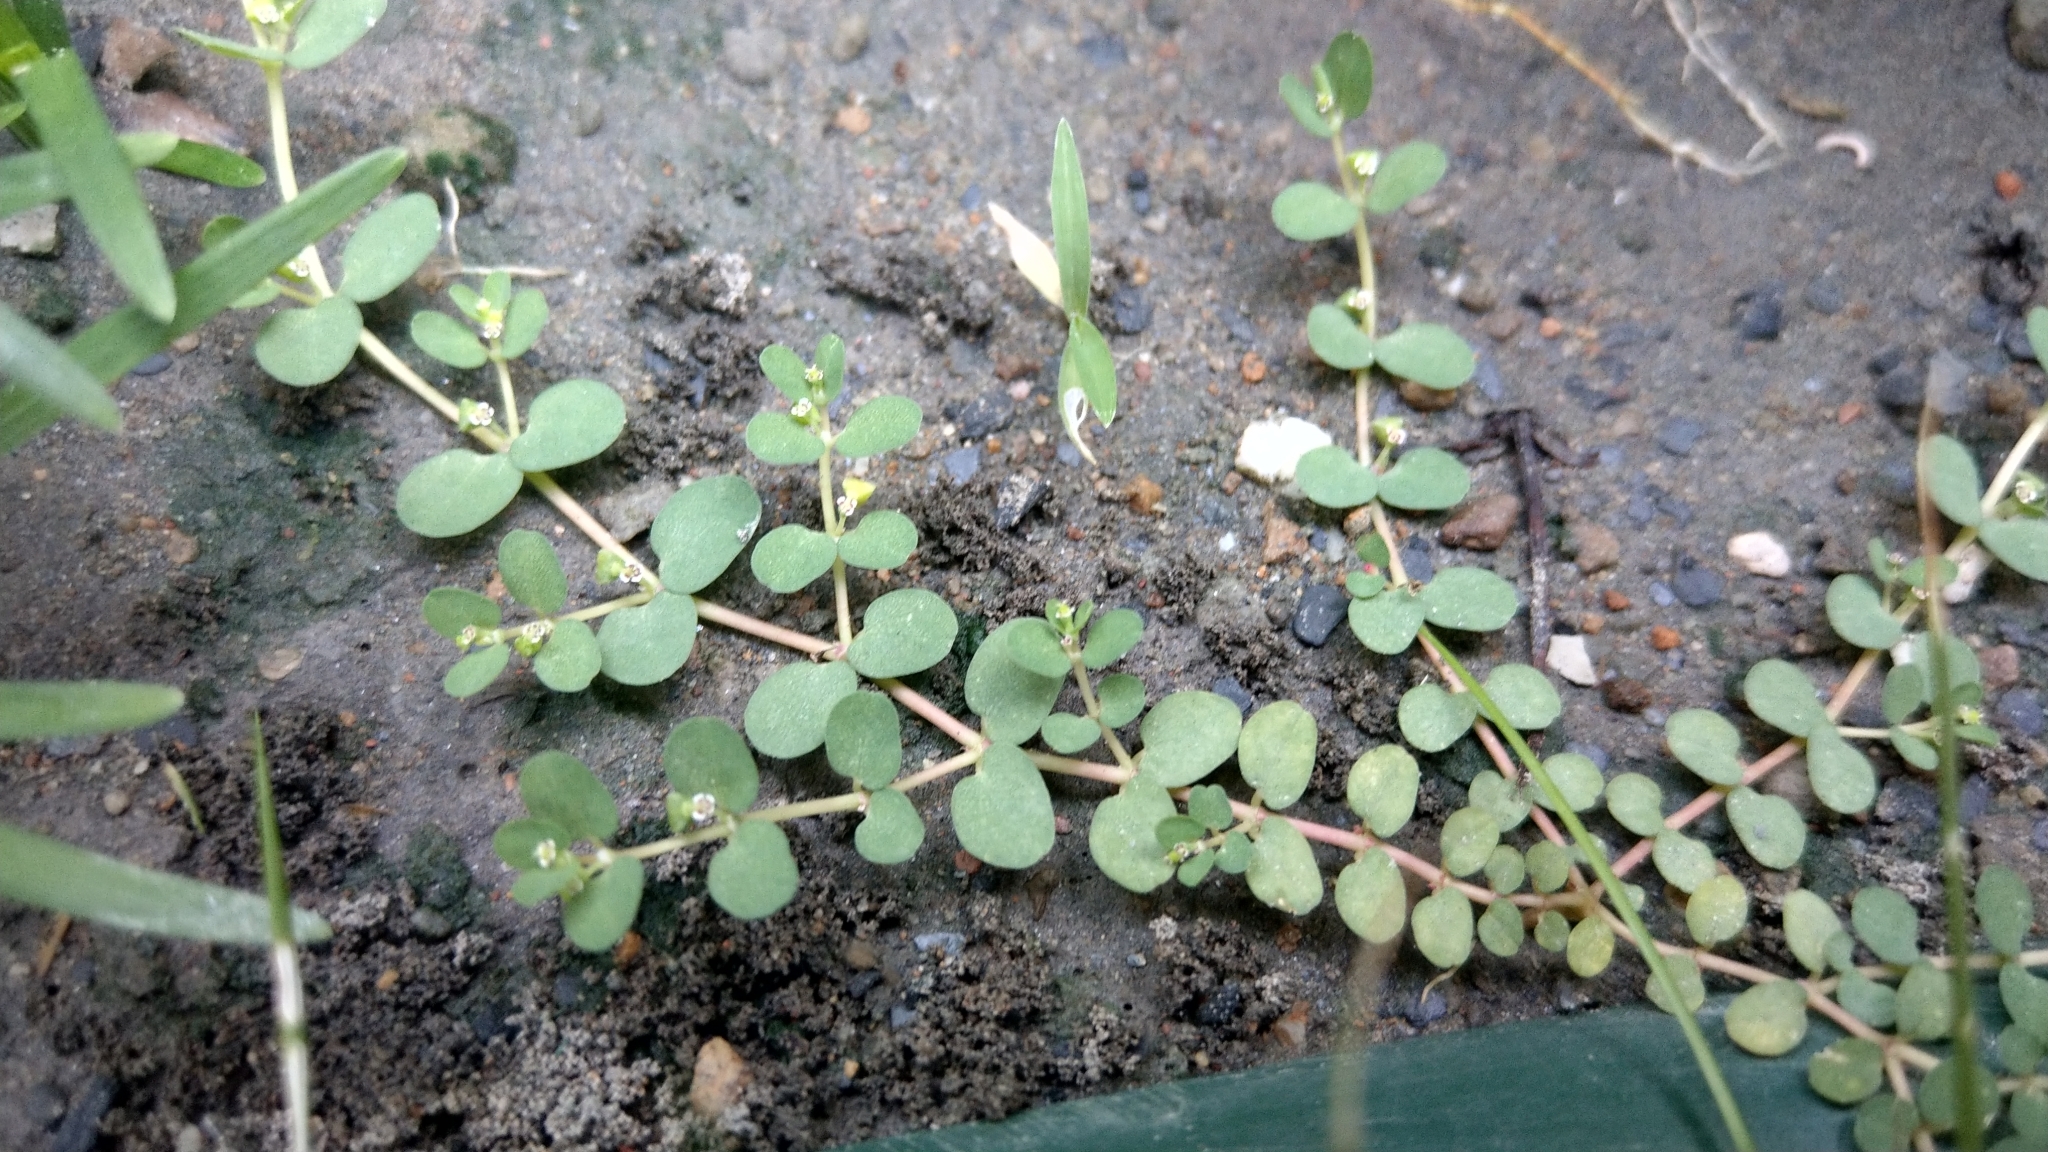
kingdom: Plantae
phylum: Tracheophyta
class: Magnoliopsida
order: Malpighiales
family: Euphorbiaceae
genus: Euphorbia
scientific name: Euphorbia serpens
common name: Matted sandmat
